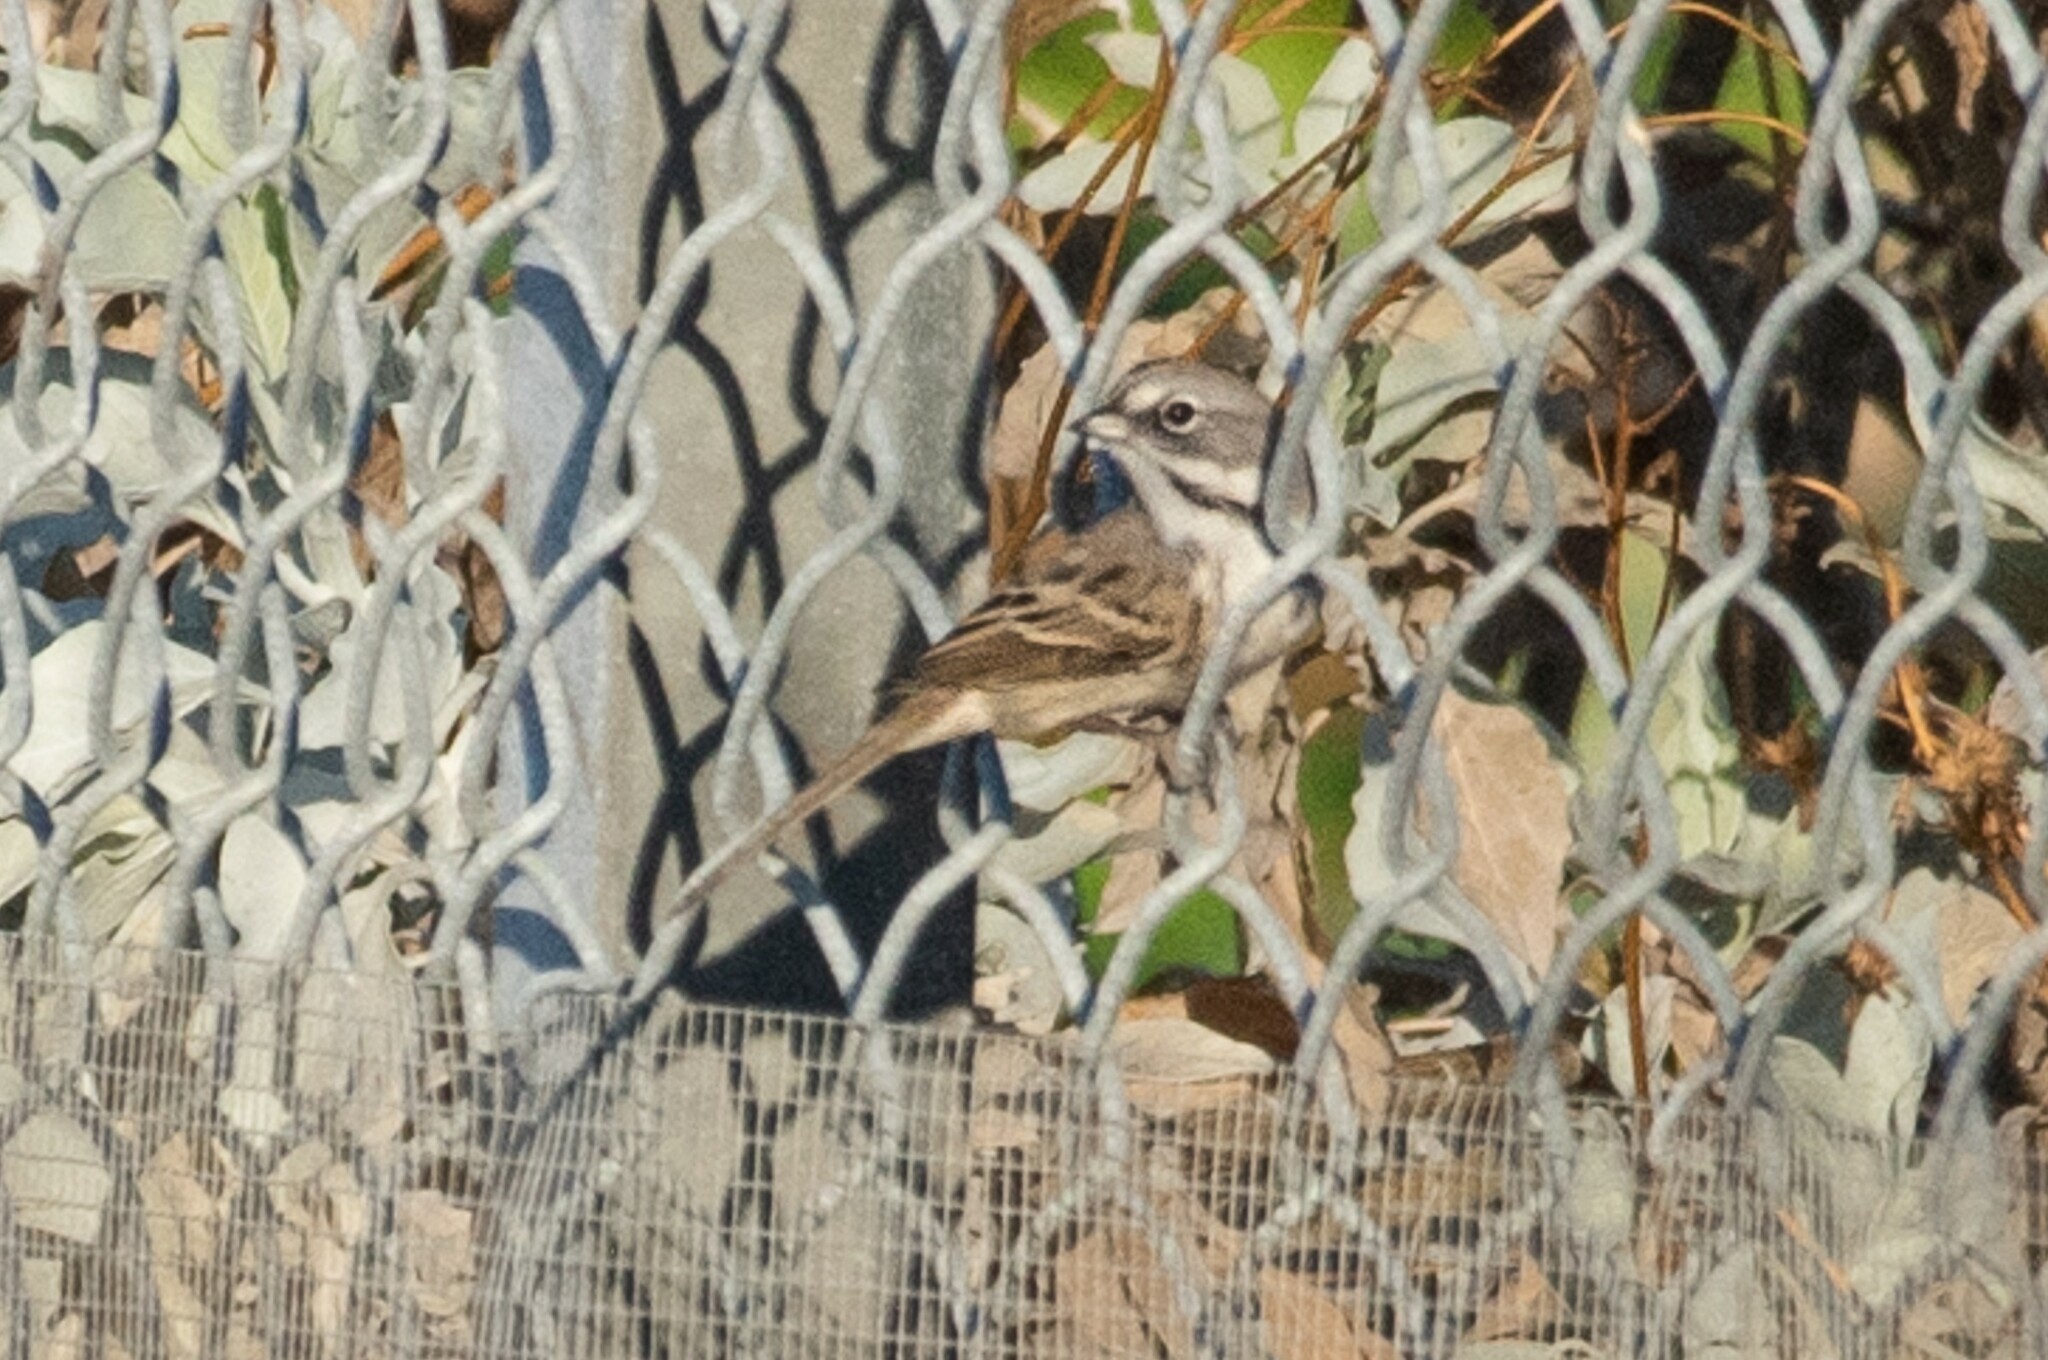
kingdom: Animalia
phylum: Chordata
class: Aves
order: Passeriformes
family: Passerellidae
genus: Artemisiospiza
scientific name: Artemisiospiza belli
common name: Bell's sparrow
